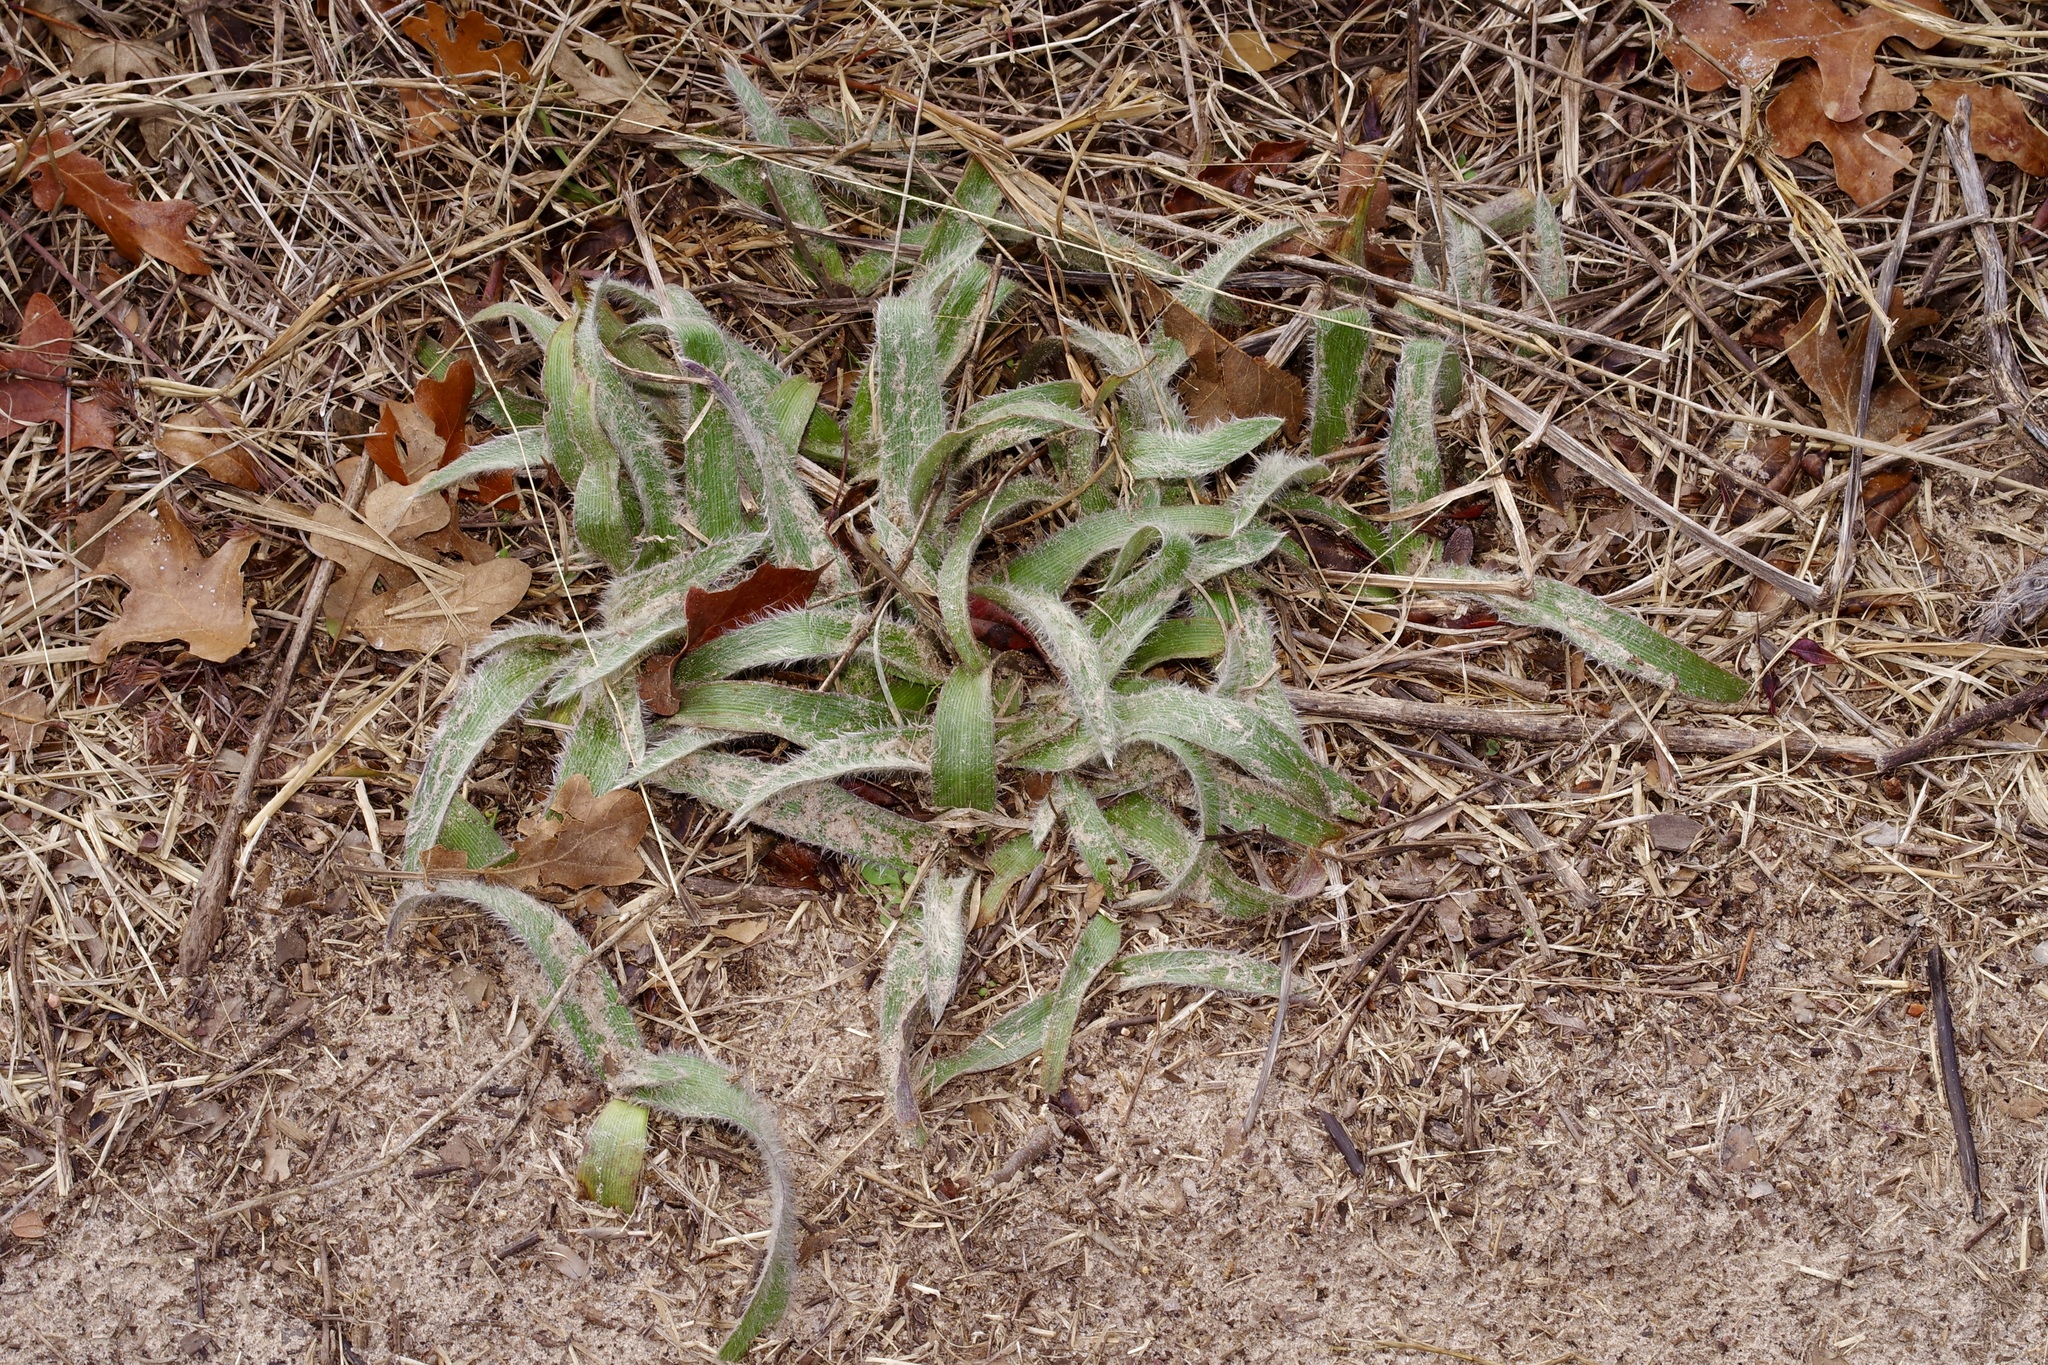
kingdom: Plantae
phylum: Tracheophyta
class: Liliopsida
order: Commelinales
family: Commelinaceae
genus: Tradescantia
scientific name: Tradescantia subacaulis
